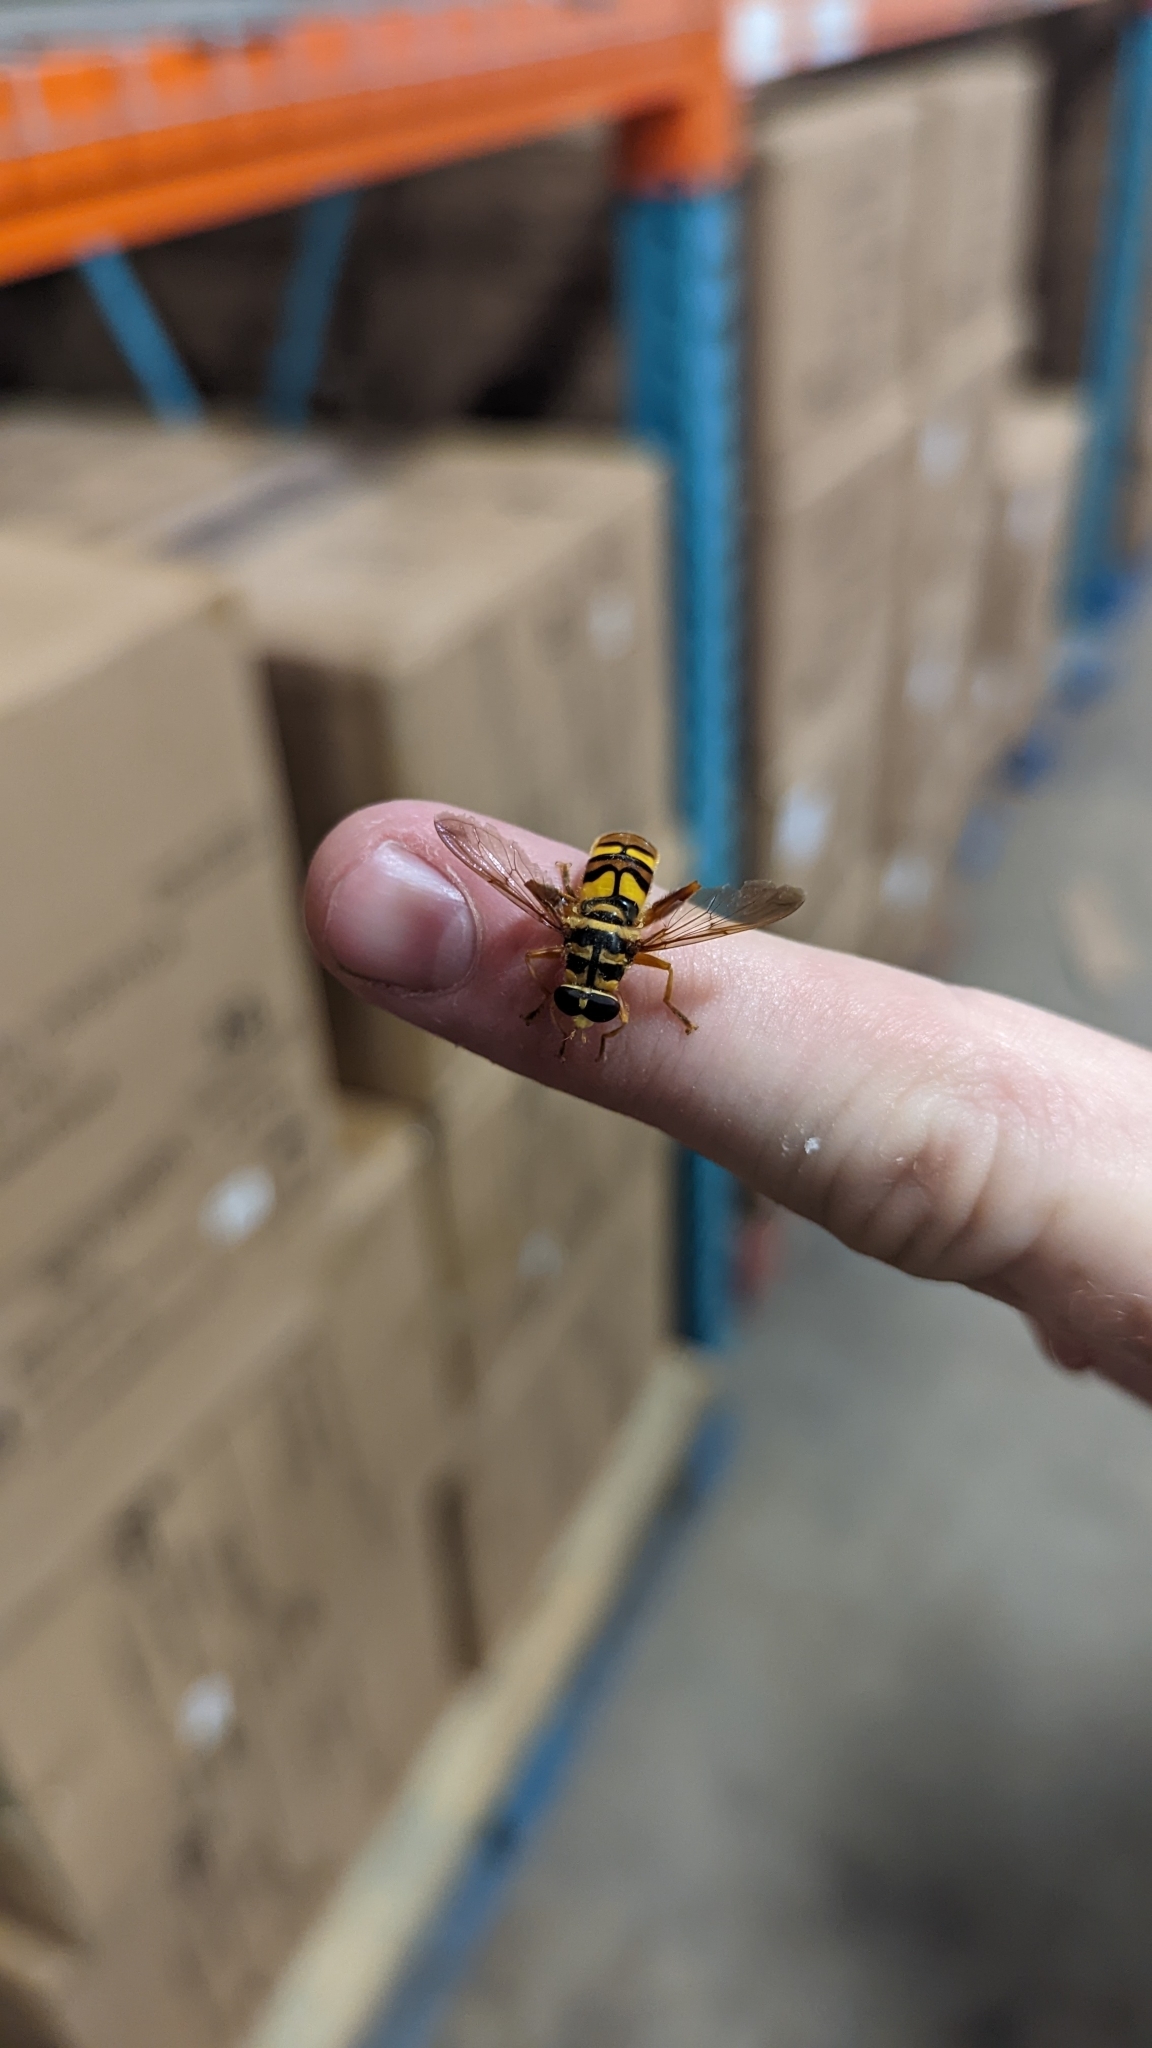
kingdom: Animalia
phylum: Arthropoda
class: Insecta
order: Diptera
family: Syrphidae
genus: Milesia
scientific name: Milesia virginiensis
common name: Virginia giant
